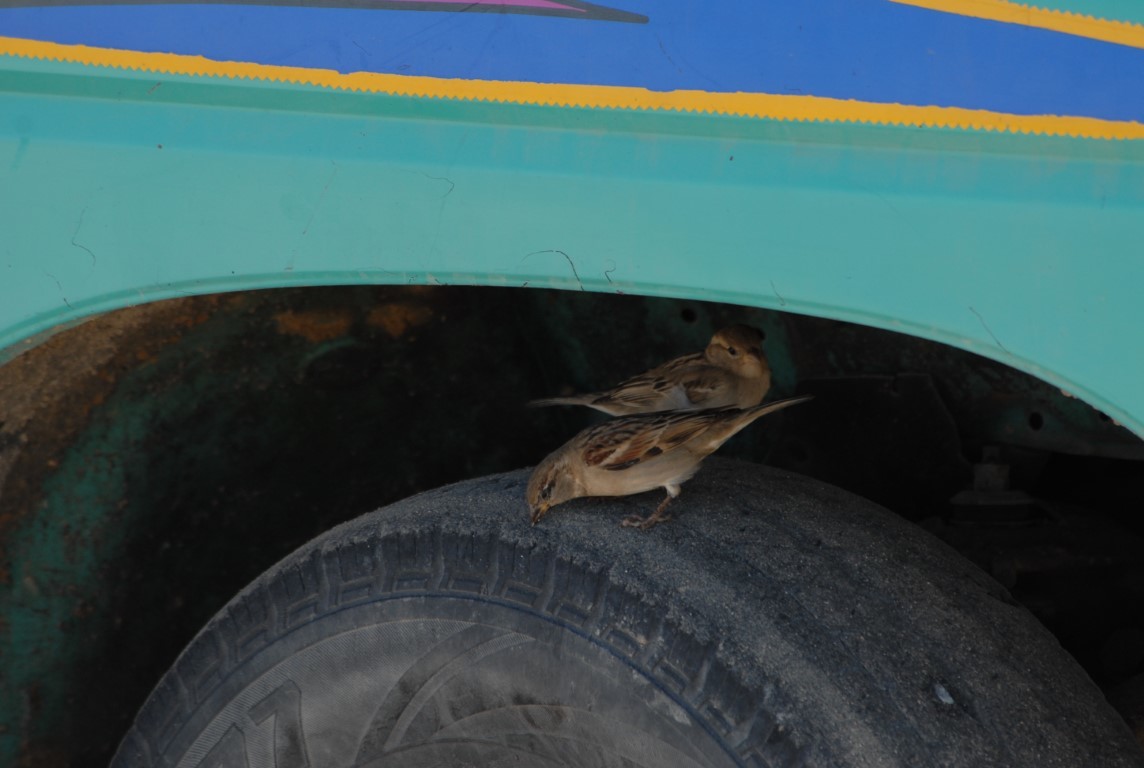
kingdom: Animalia
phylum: Chordata
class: Aves
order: Passeriformes
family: Passeridae
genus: Passer
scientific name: Passer domesticus
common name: House sparrow
